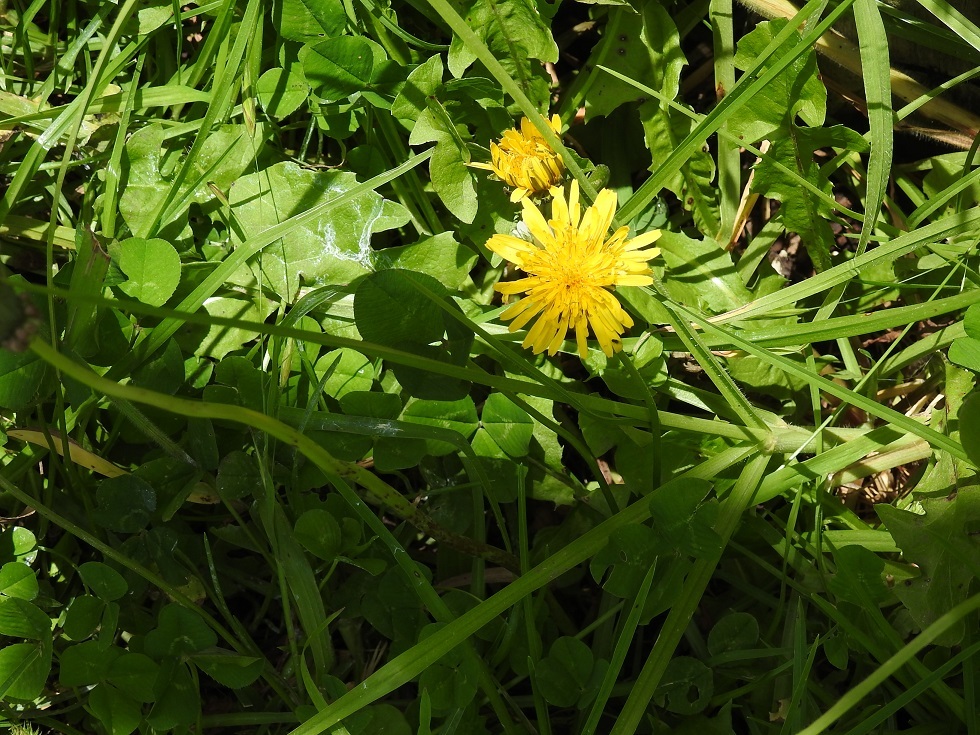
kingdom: Plantae
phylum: Tracheophyta
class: Magnoliopsida
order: Asterales
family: Asteraceae
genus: Taraxacum
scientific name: Taraxacum officinale
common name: Common dandelion
